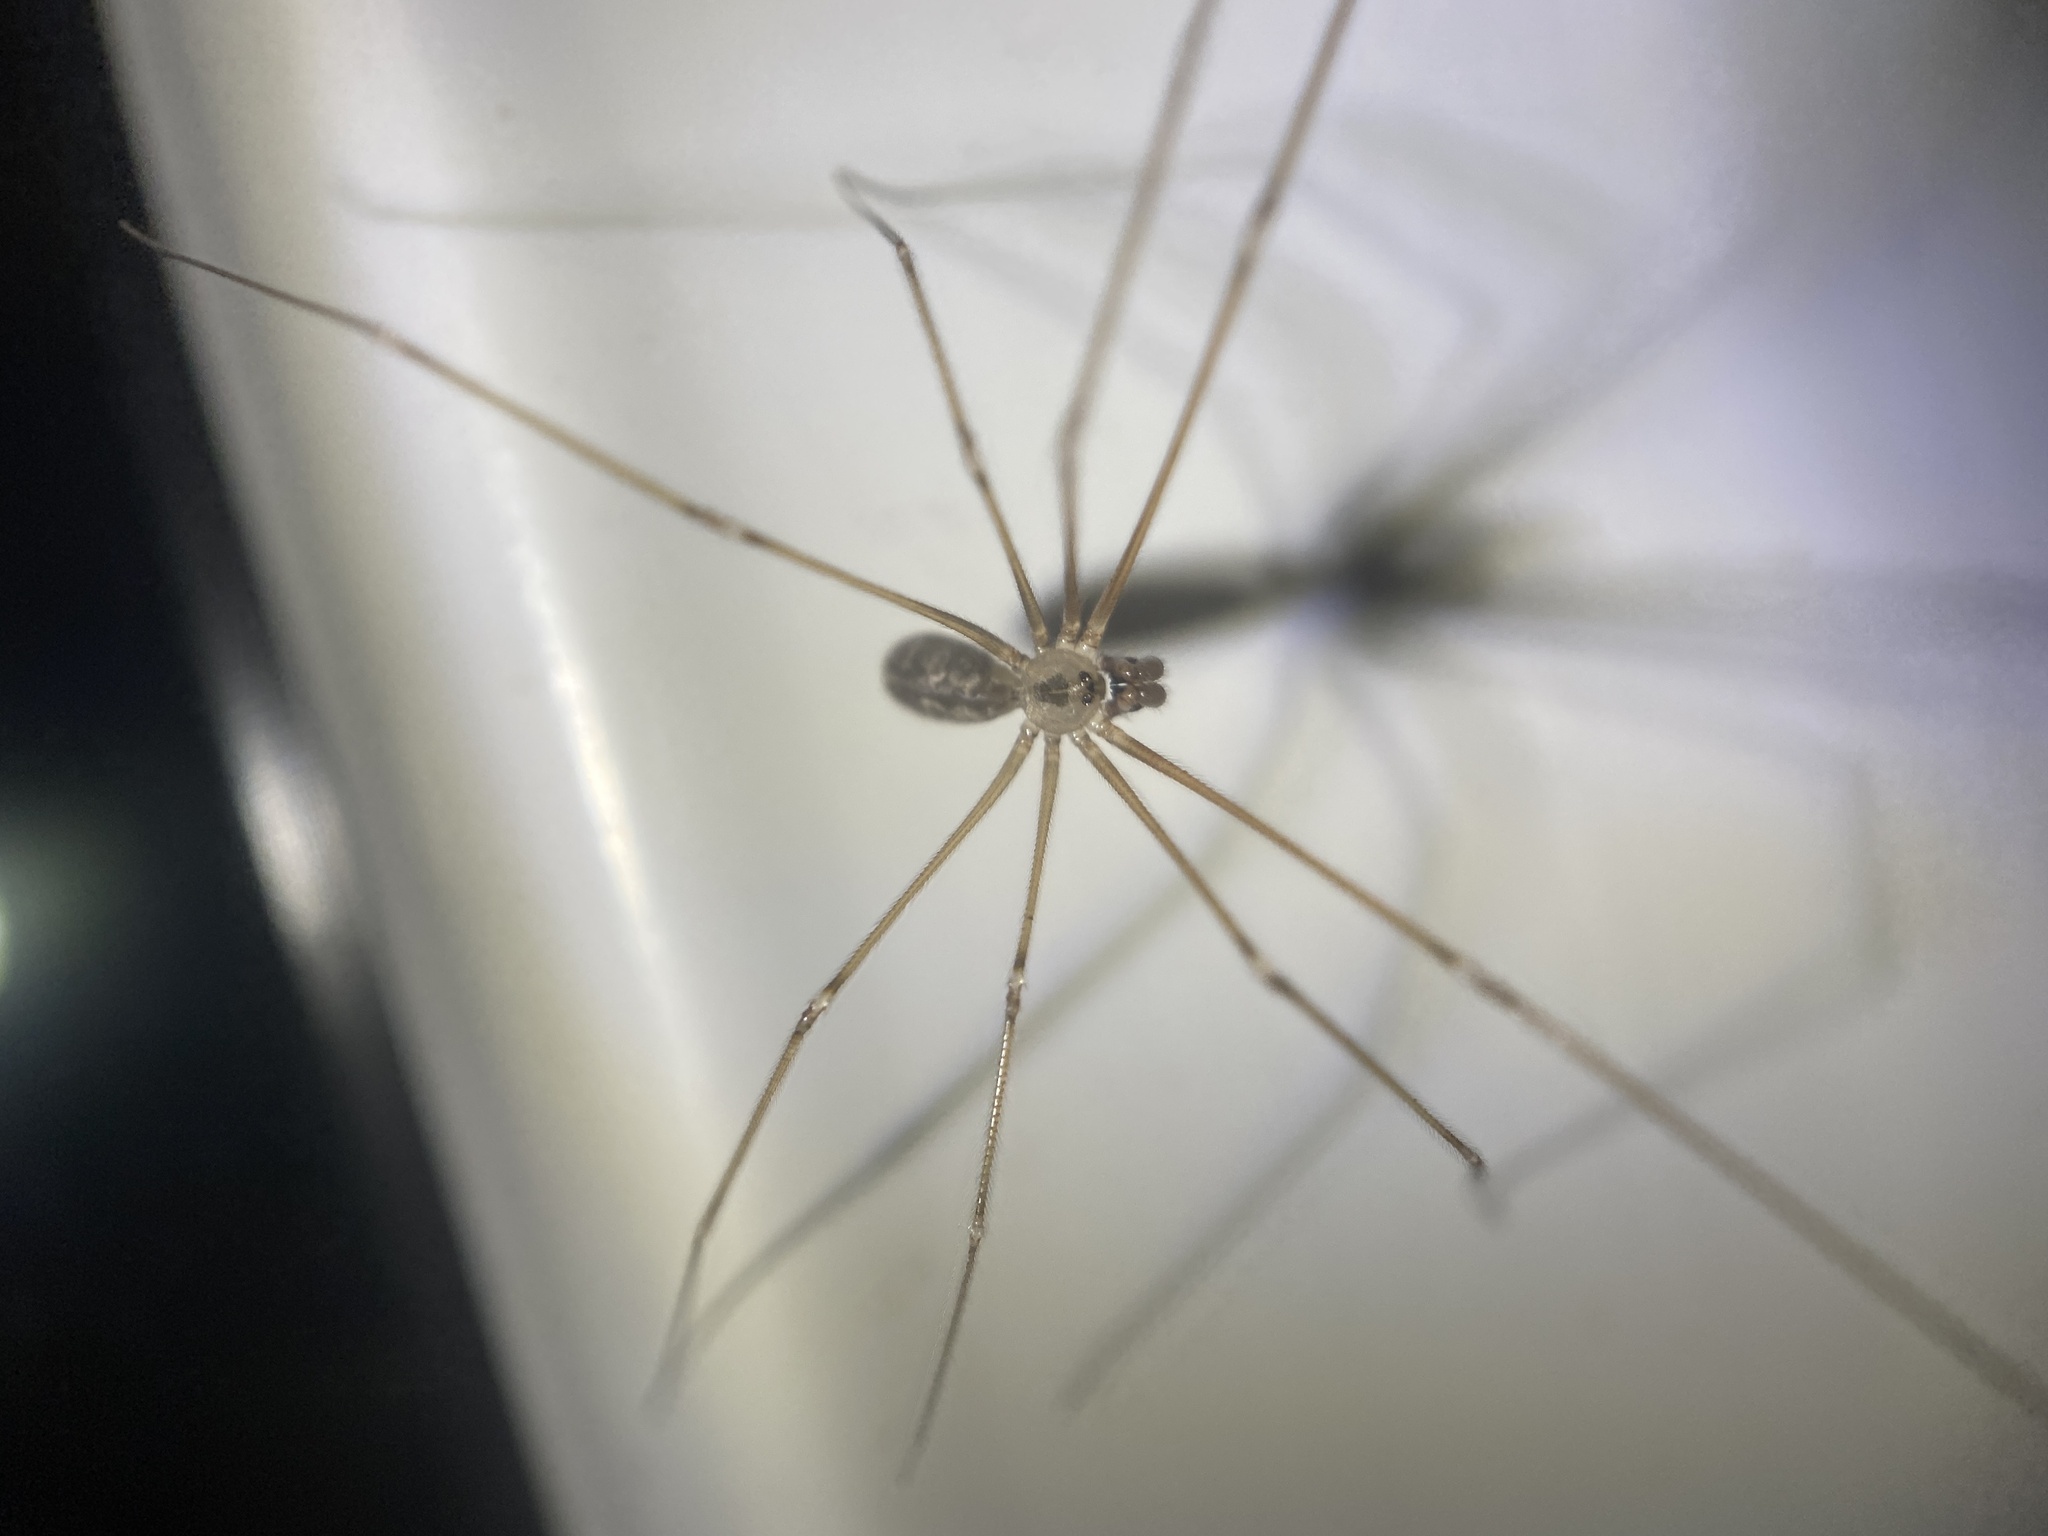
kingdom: Animalia
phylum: Arthropoda
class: Arachnida
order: Araneae
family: Pholcidae
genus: Pholcus
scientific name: Pholcus manueli
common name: Cellar spider
